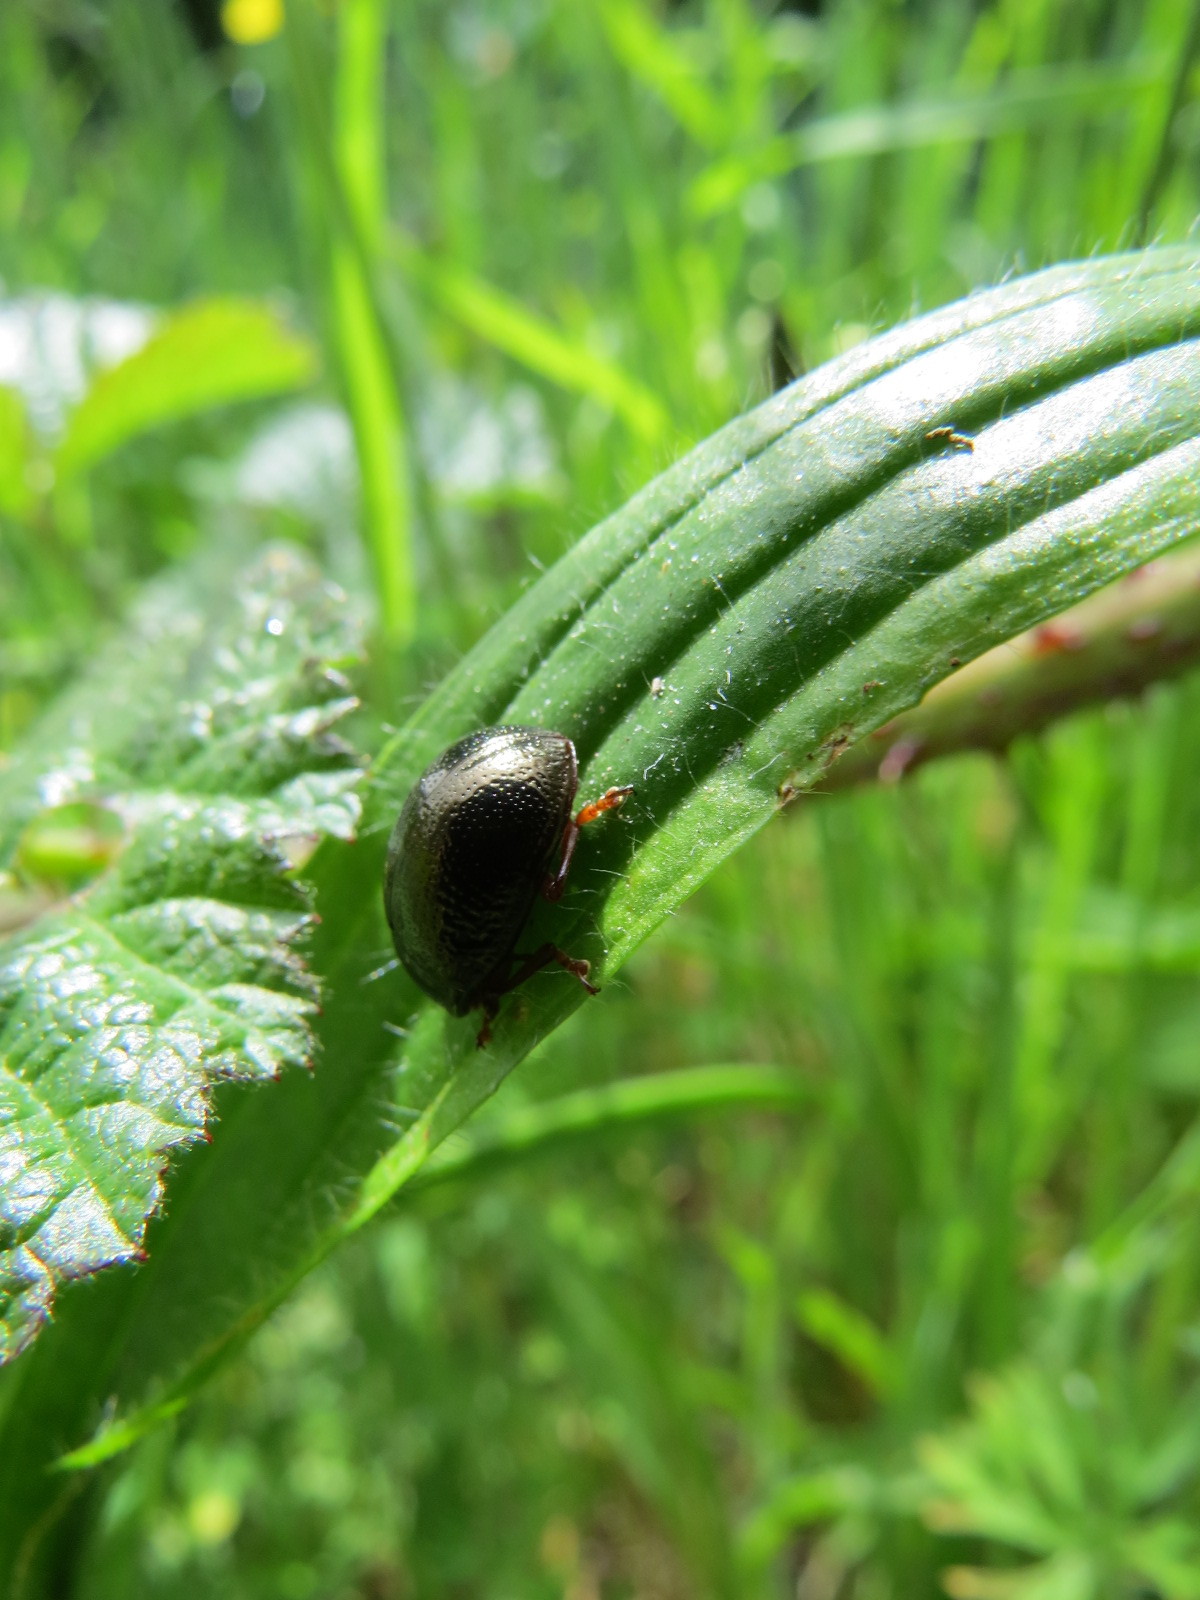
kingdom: Animalia
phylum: Arthropoda
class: Insecta
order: Coleoptera
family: Chrysomelidae
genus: Chrysolina
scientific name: Chrysolina bankii
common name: Leaf beetle
